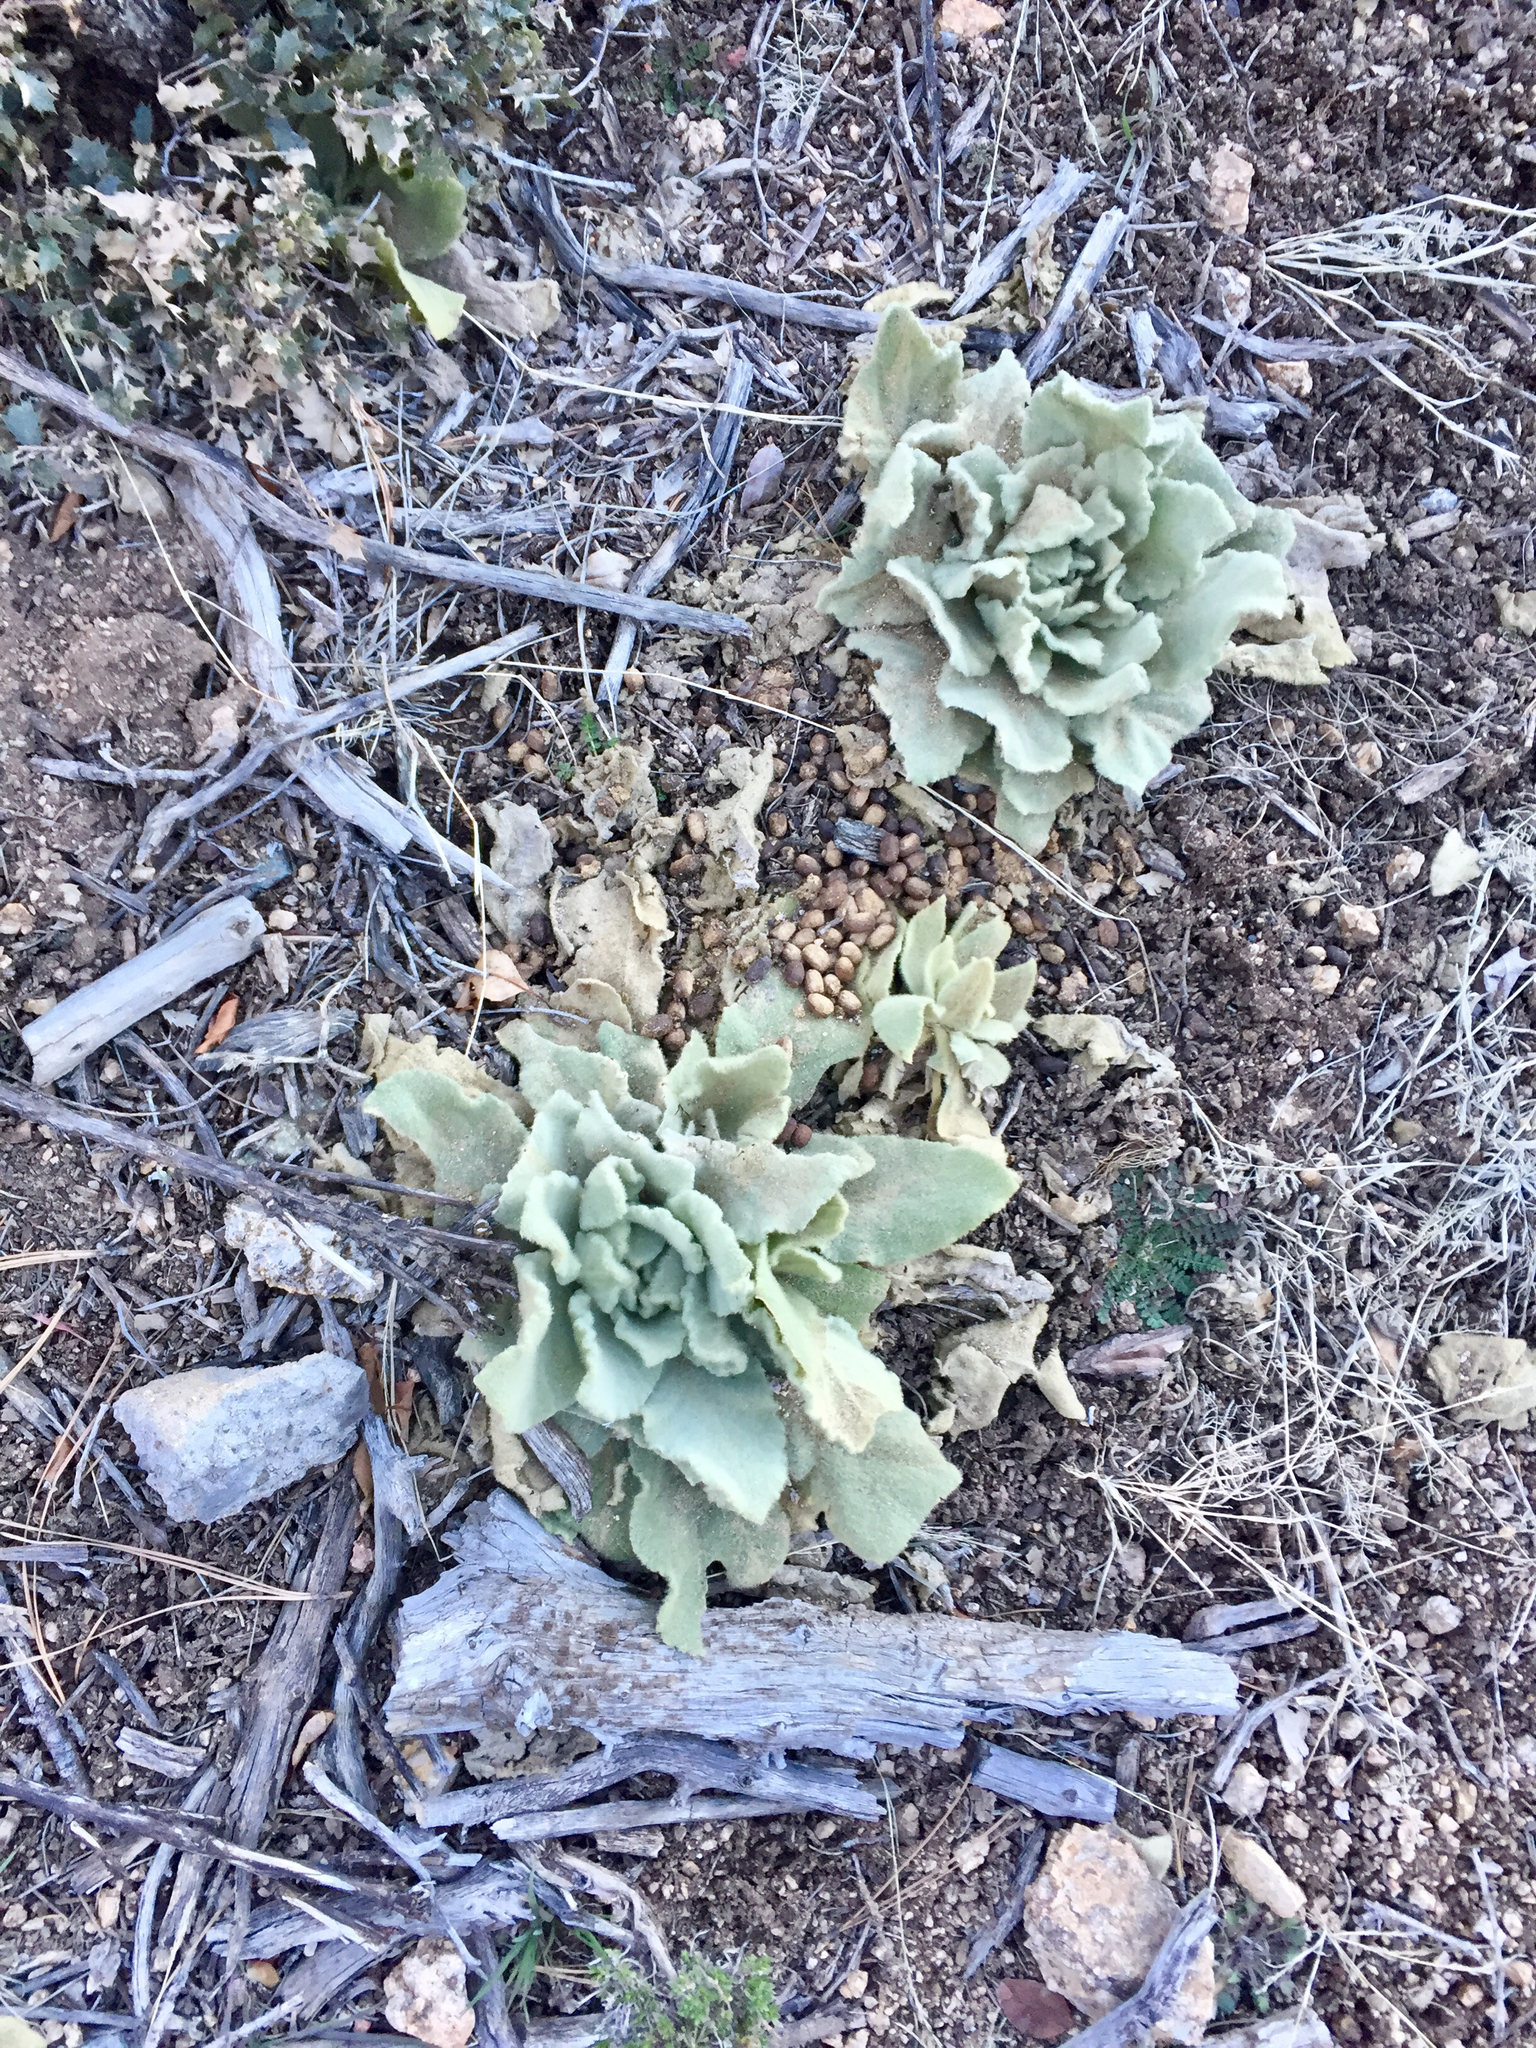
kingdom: Plantae
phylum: Tracheophyta
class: Magnoliopsida
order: Lamiales
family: Scrophulariaceae
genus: Verbascum
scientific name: Verbascum thapsus
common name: Common mullein
